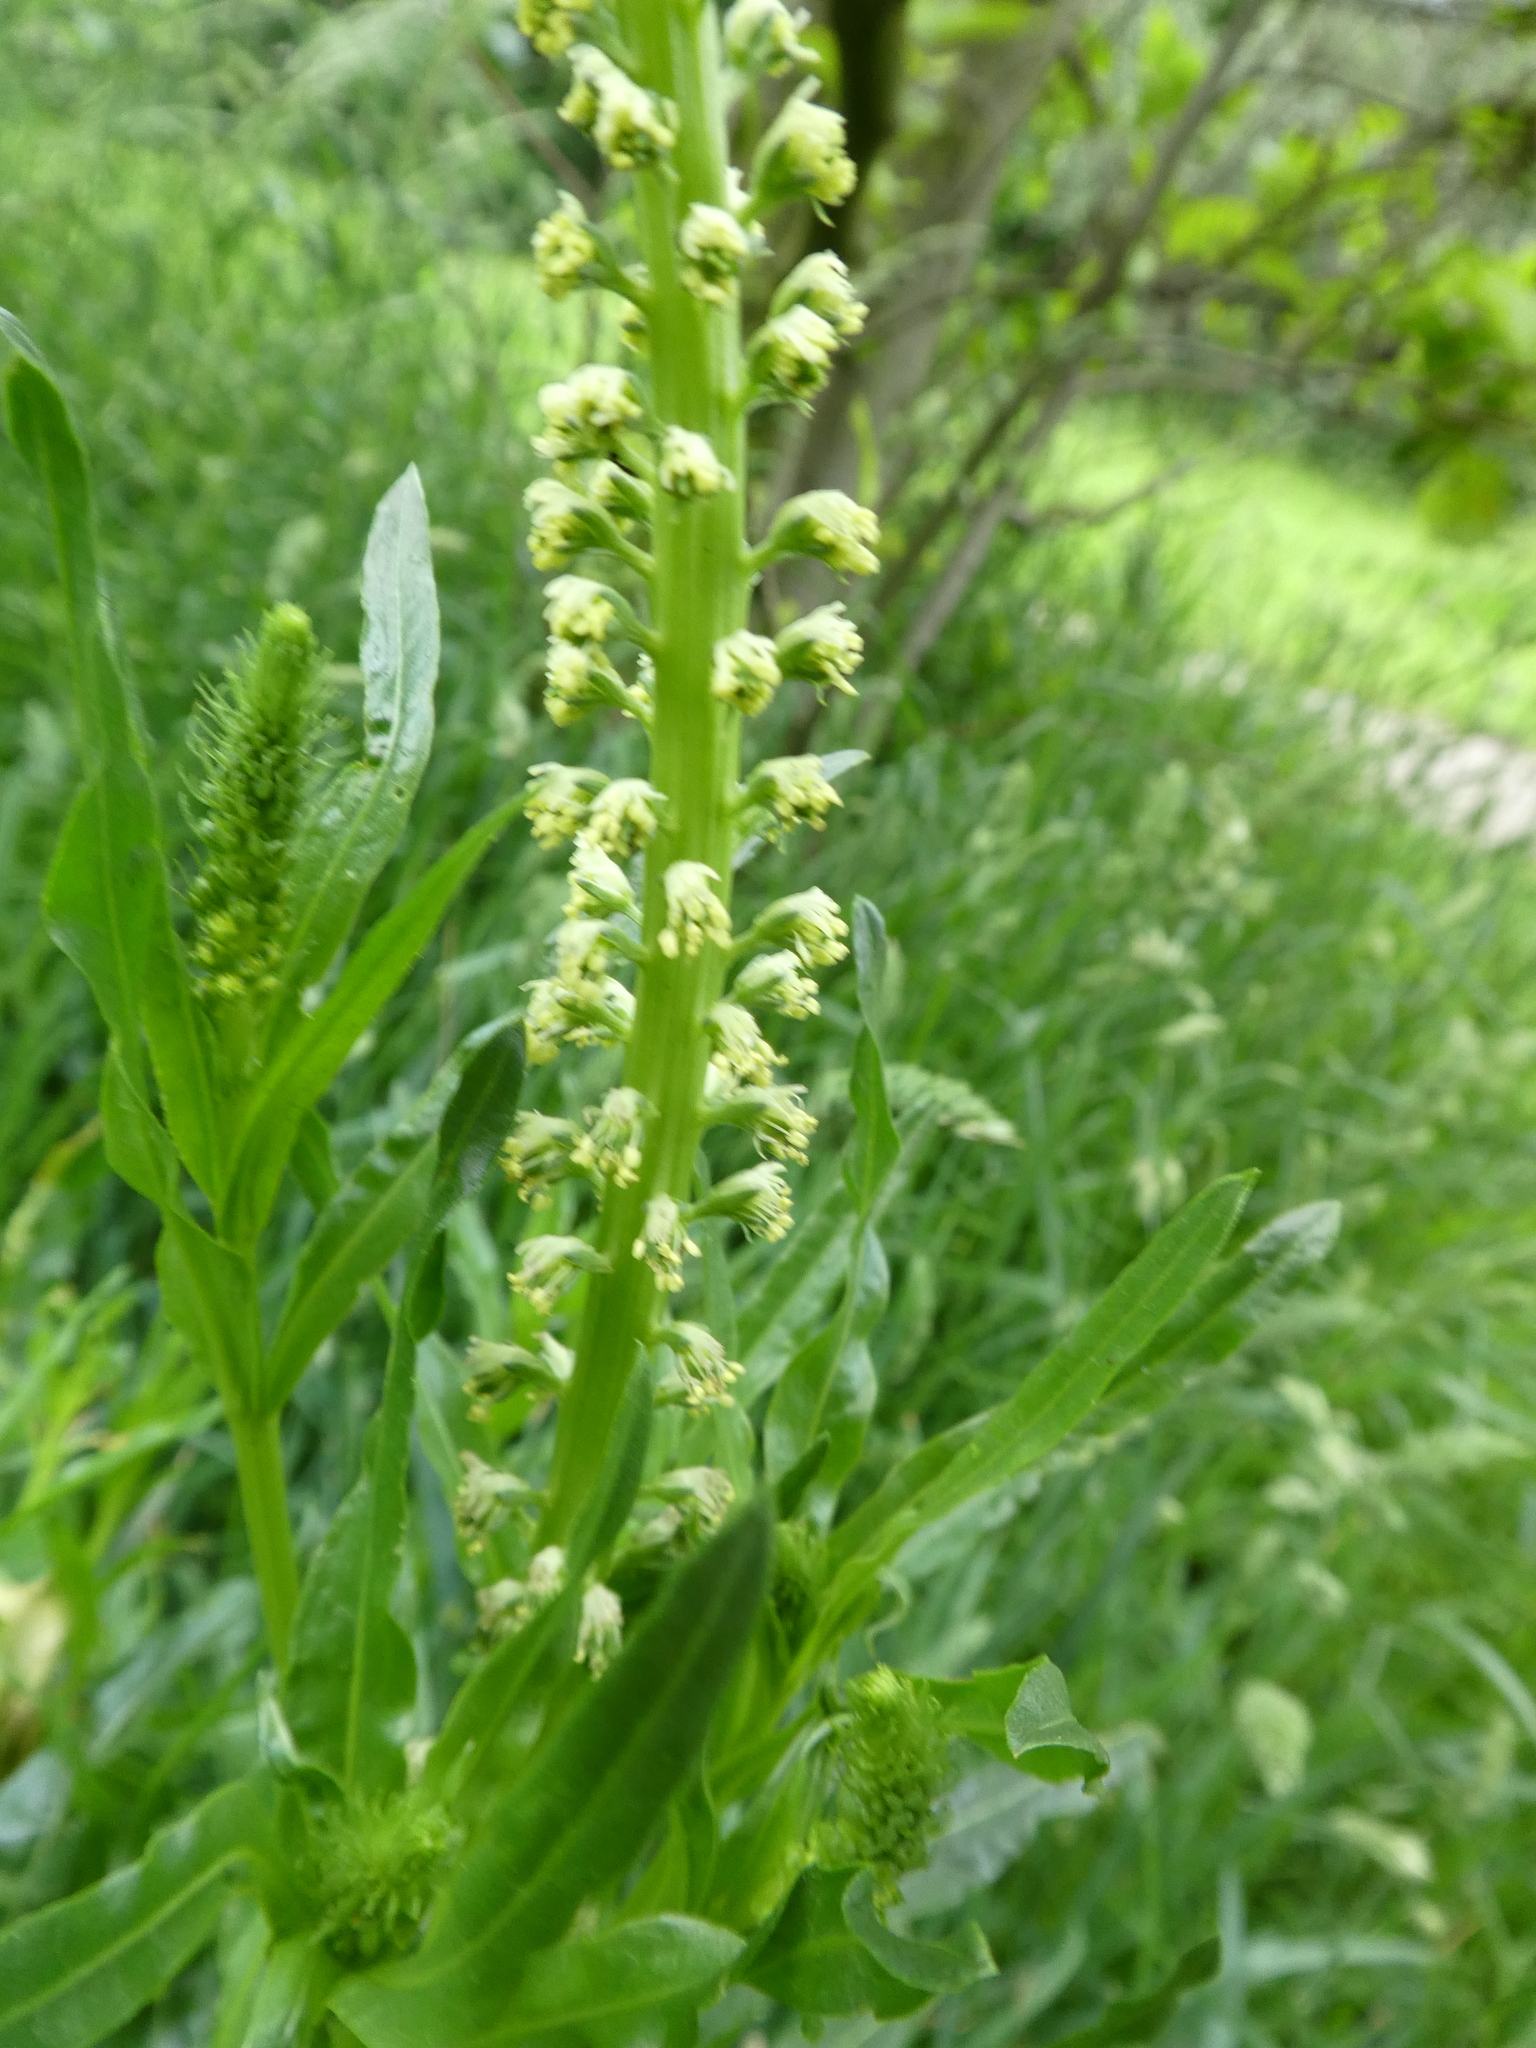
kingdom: Plantae
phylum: Tracheophyta
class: Magnoliopsida
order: Brassicales
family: Resedaceae
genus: Reseda
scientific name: Reseda luteola
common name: Weld
